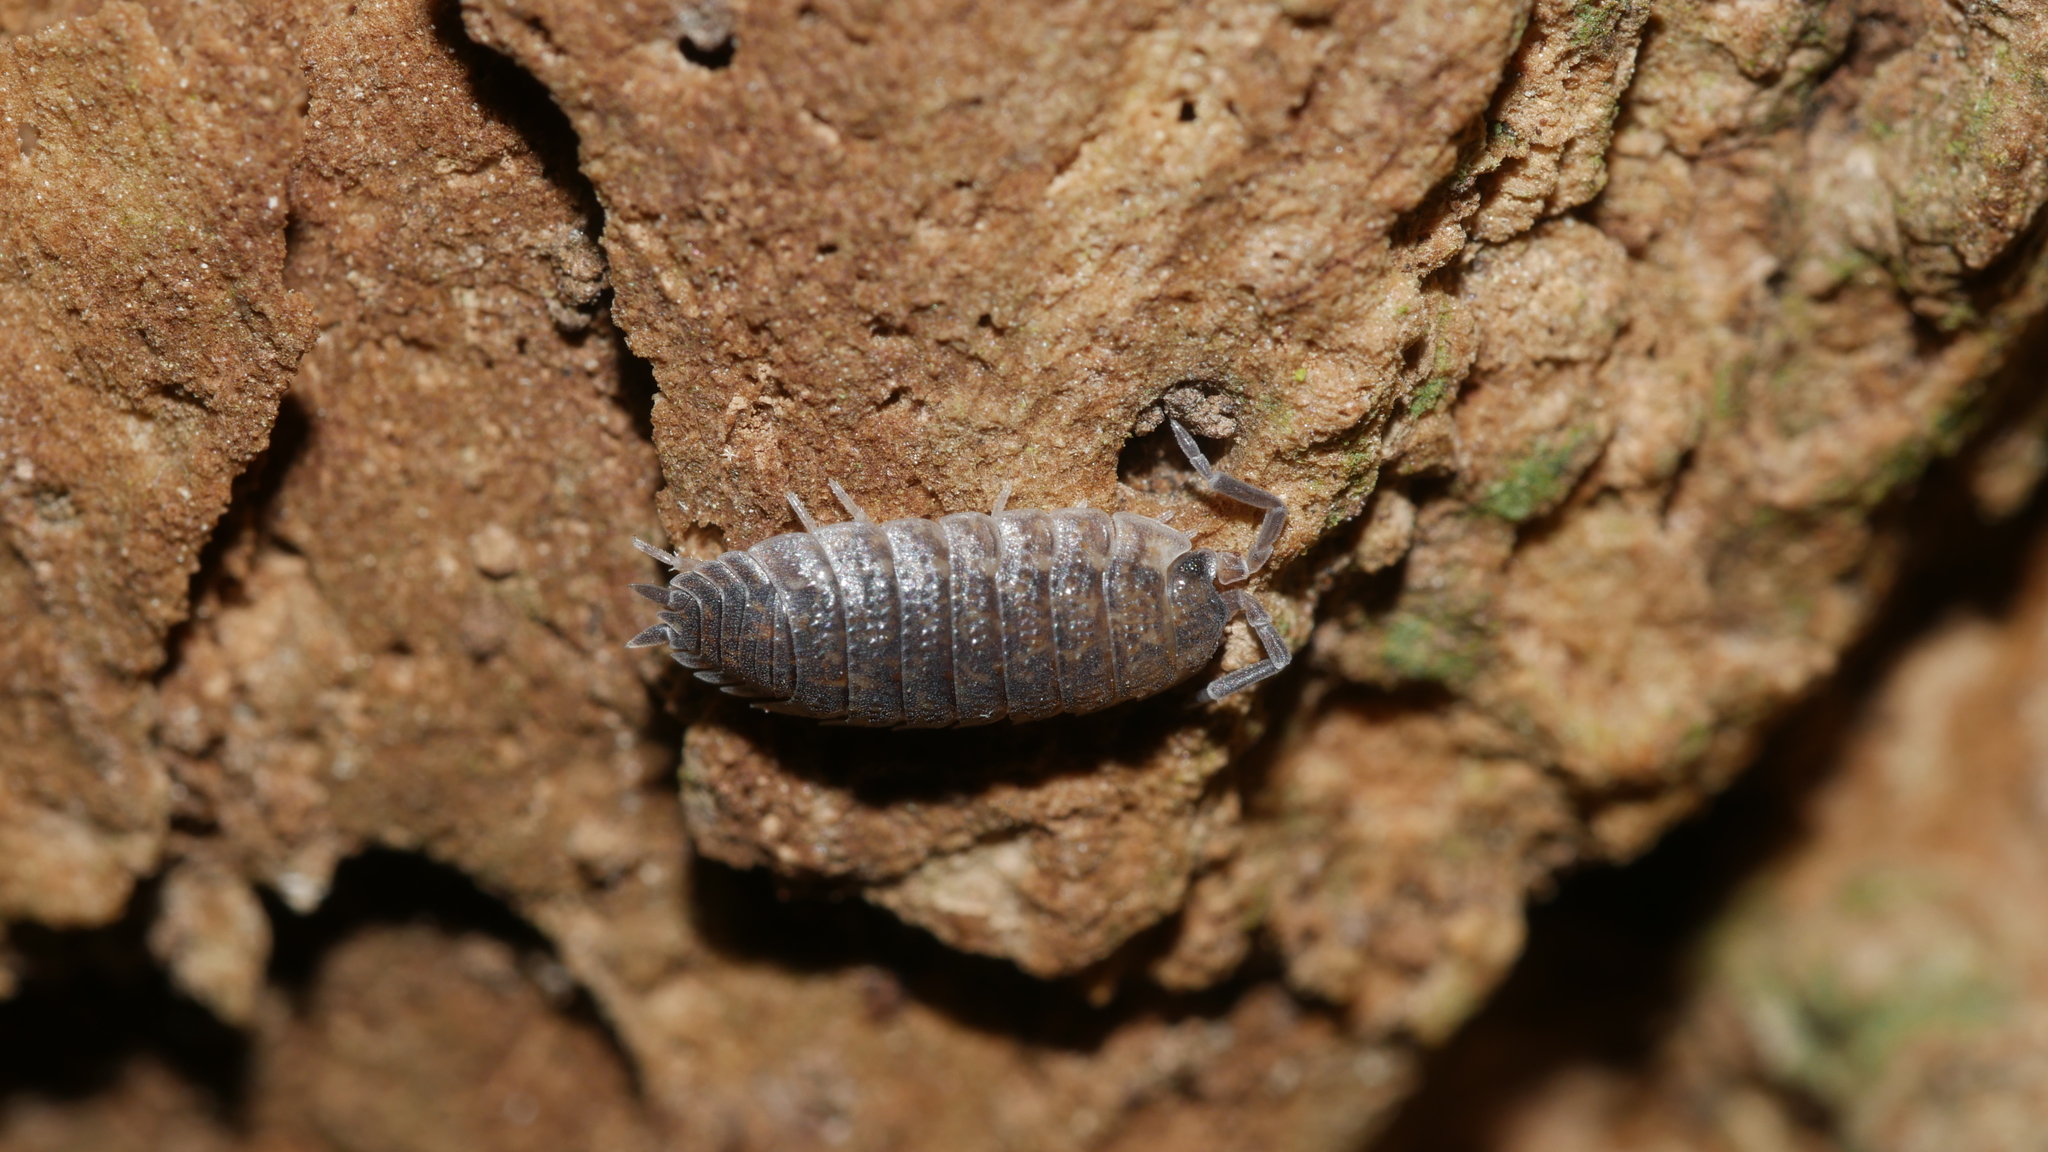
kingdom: Animalia
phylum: Arthropoda
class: Malacostraca
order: Isopoda
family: Porcellionidae
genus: Porcellio
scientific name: Porcellio scaber
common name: Common rough woodlouse
